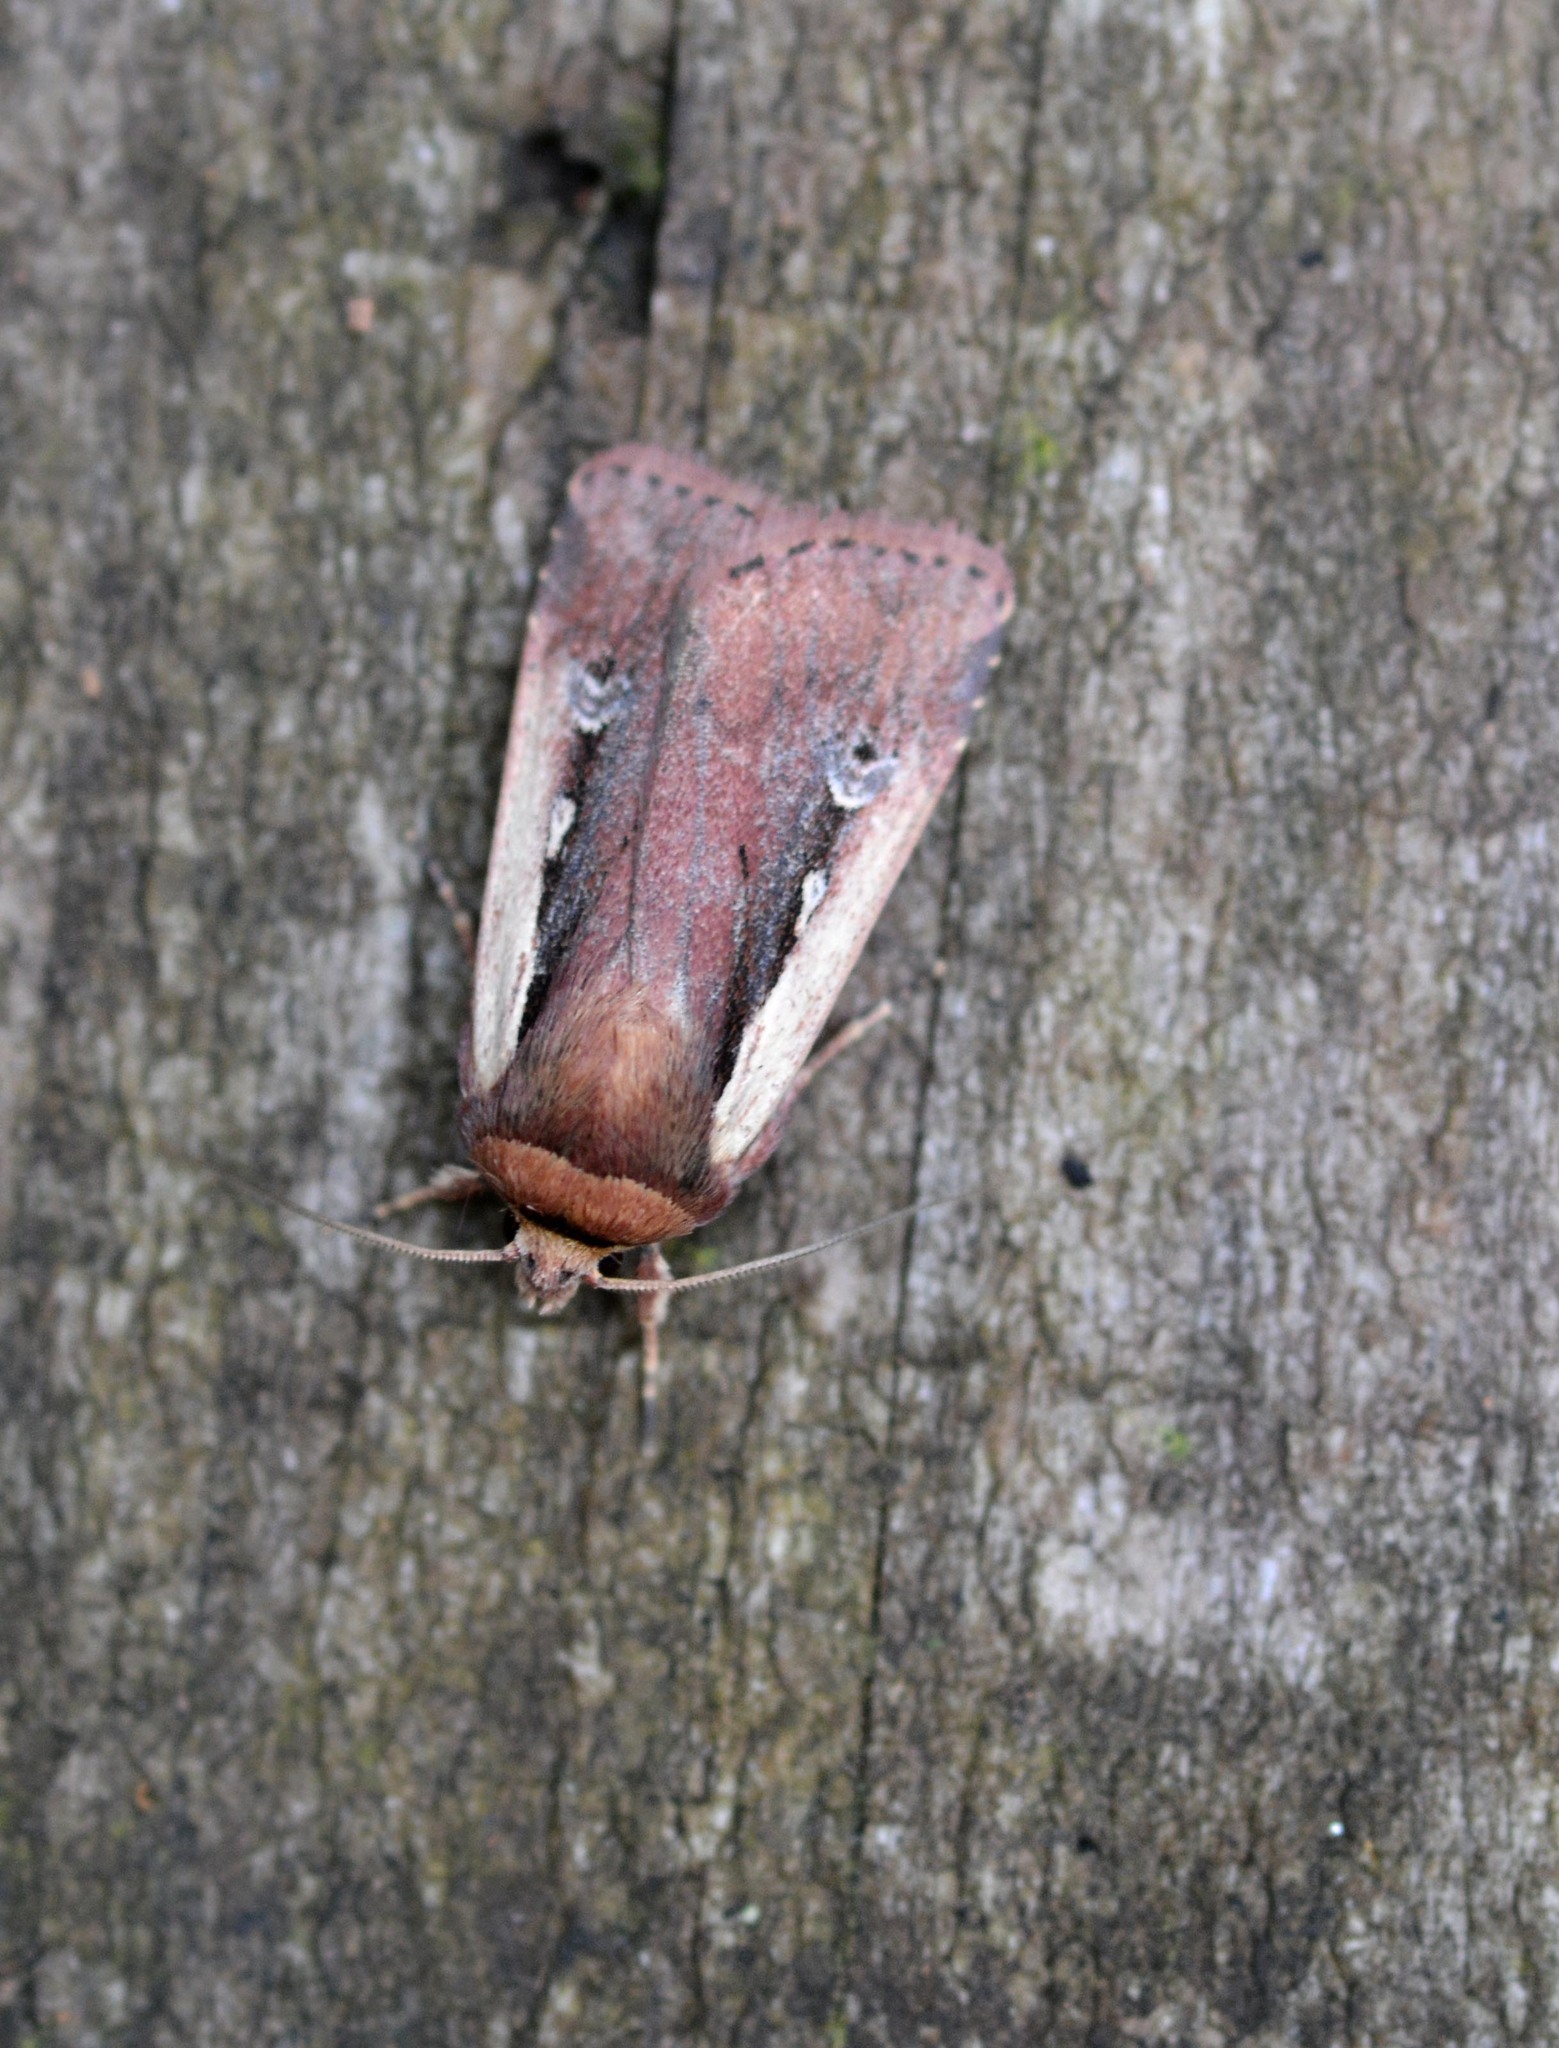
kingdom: Animalia
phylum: Arthropoda
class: Insecta
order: Lepidoptera
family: Noctuidae
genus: Ochropleura
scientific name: Ochropleura plecta
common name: Flame shoulder
